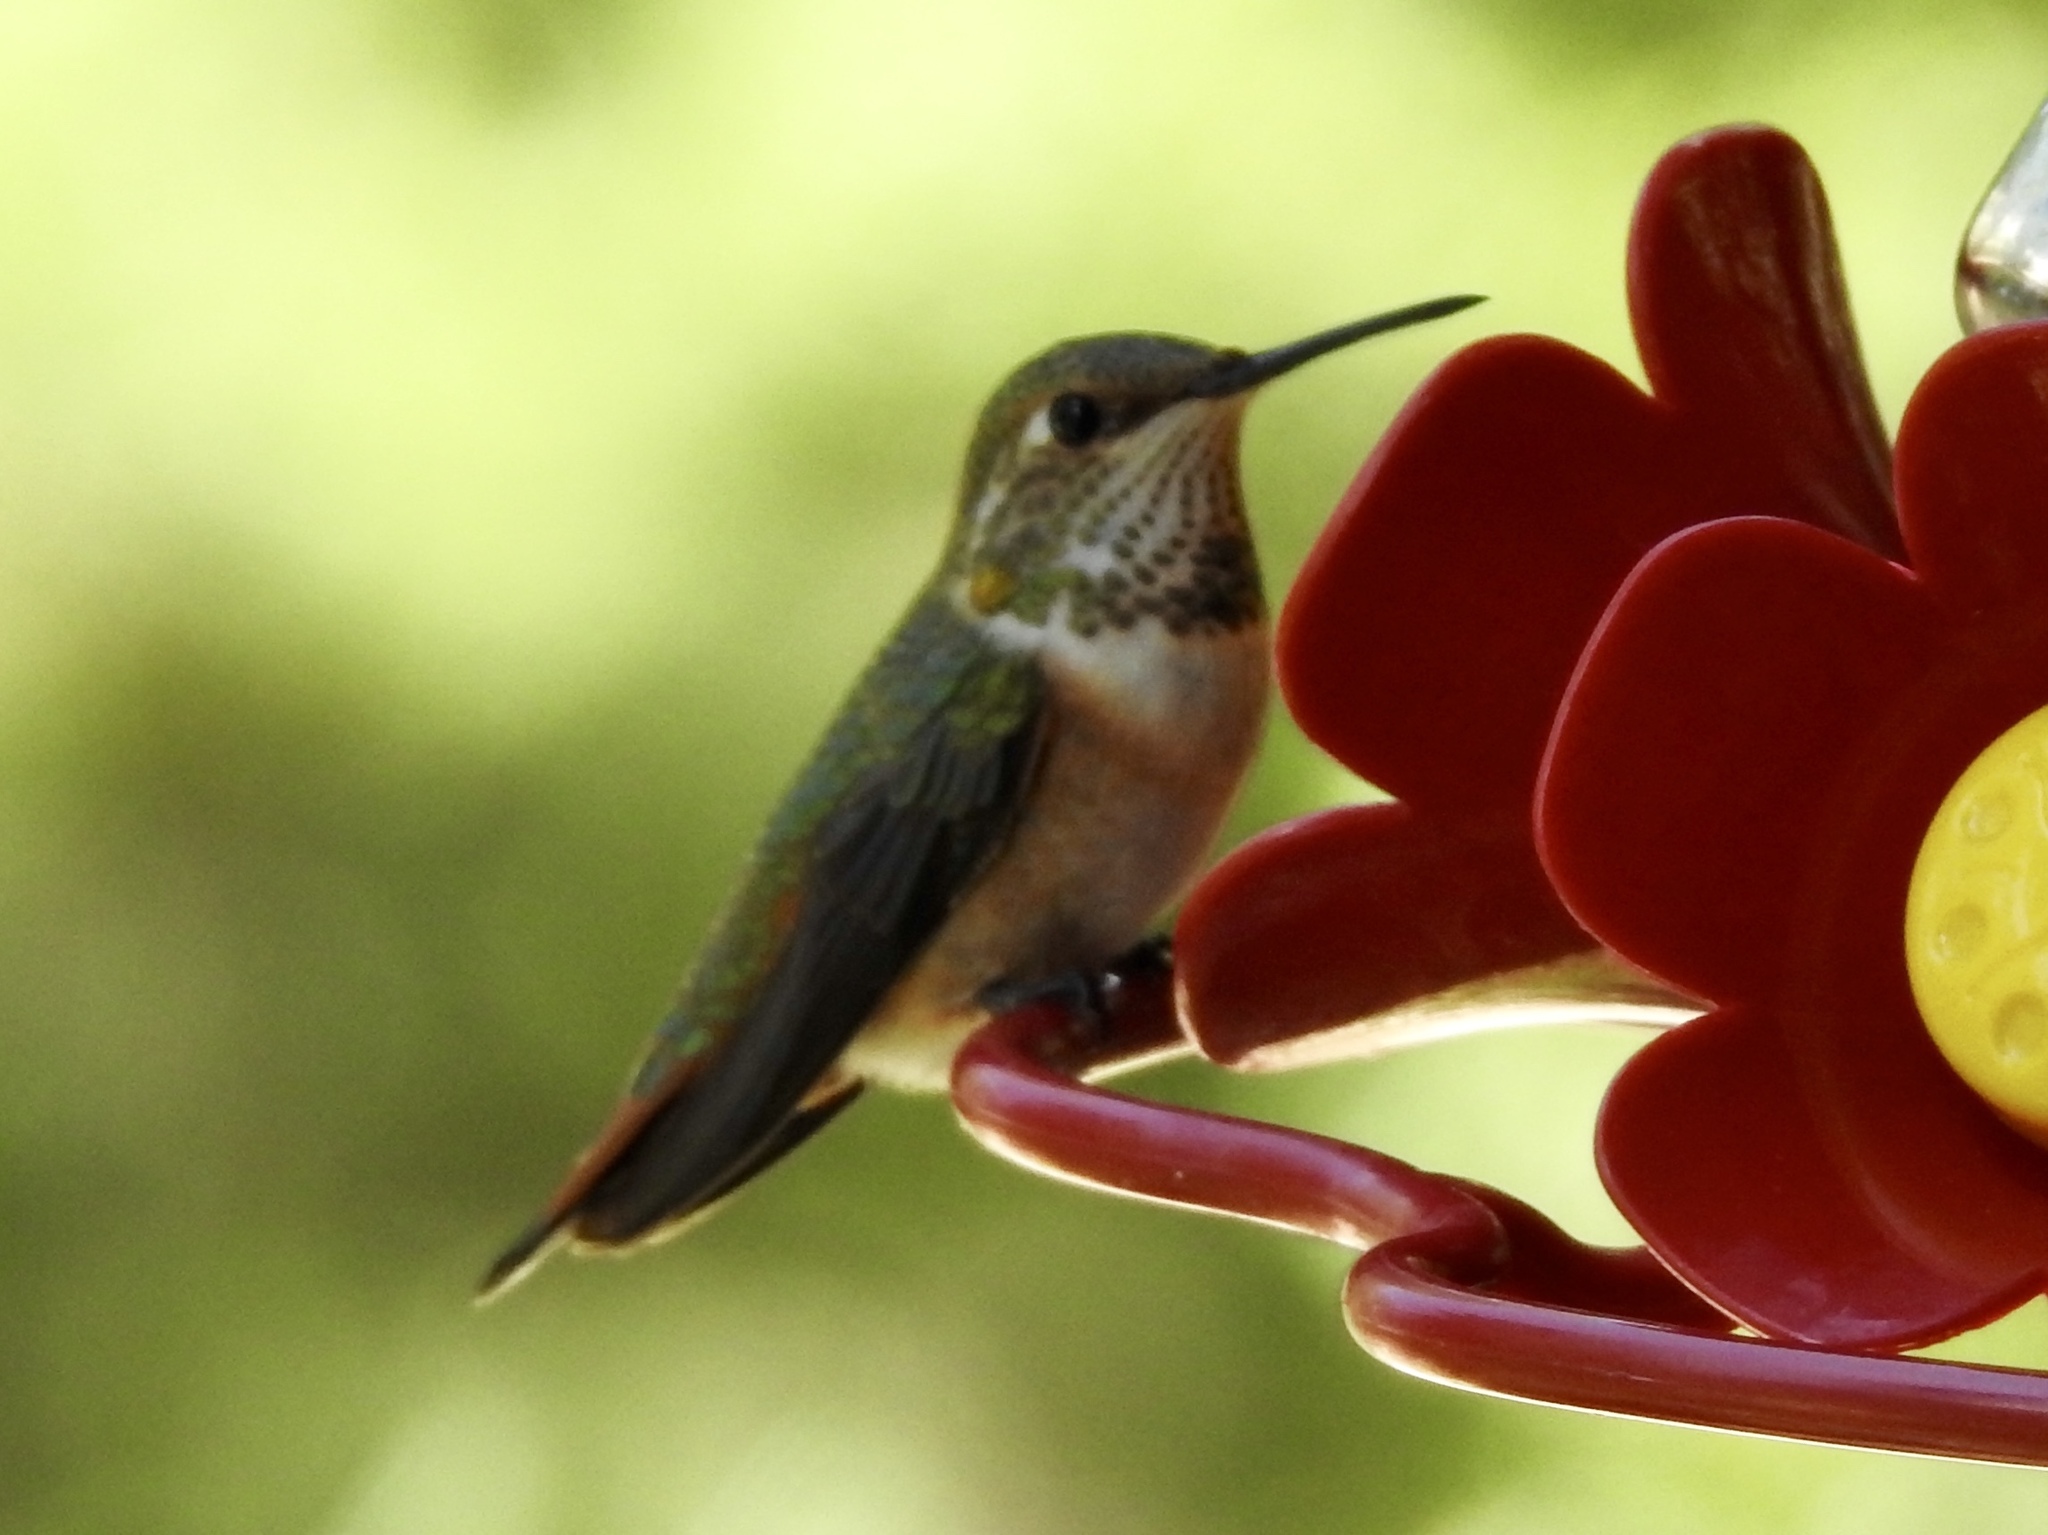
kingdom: Animalia
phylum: Chordata
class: Aves
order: Apodiformes
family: Trochilidae
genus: Selasphorus
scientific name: Selasphorus rufus
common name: Rufous hummingbird
